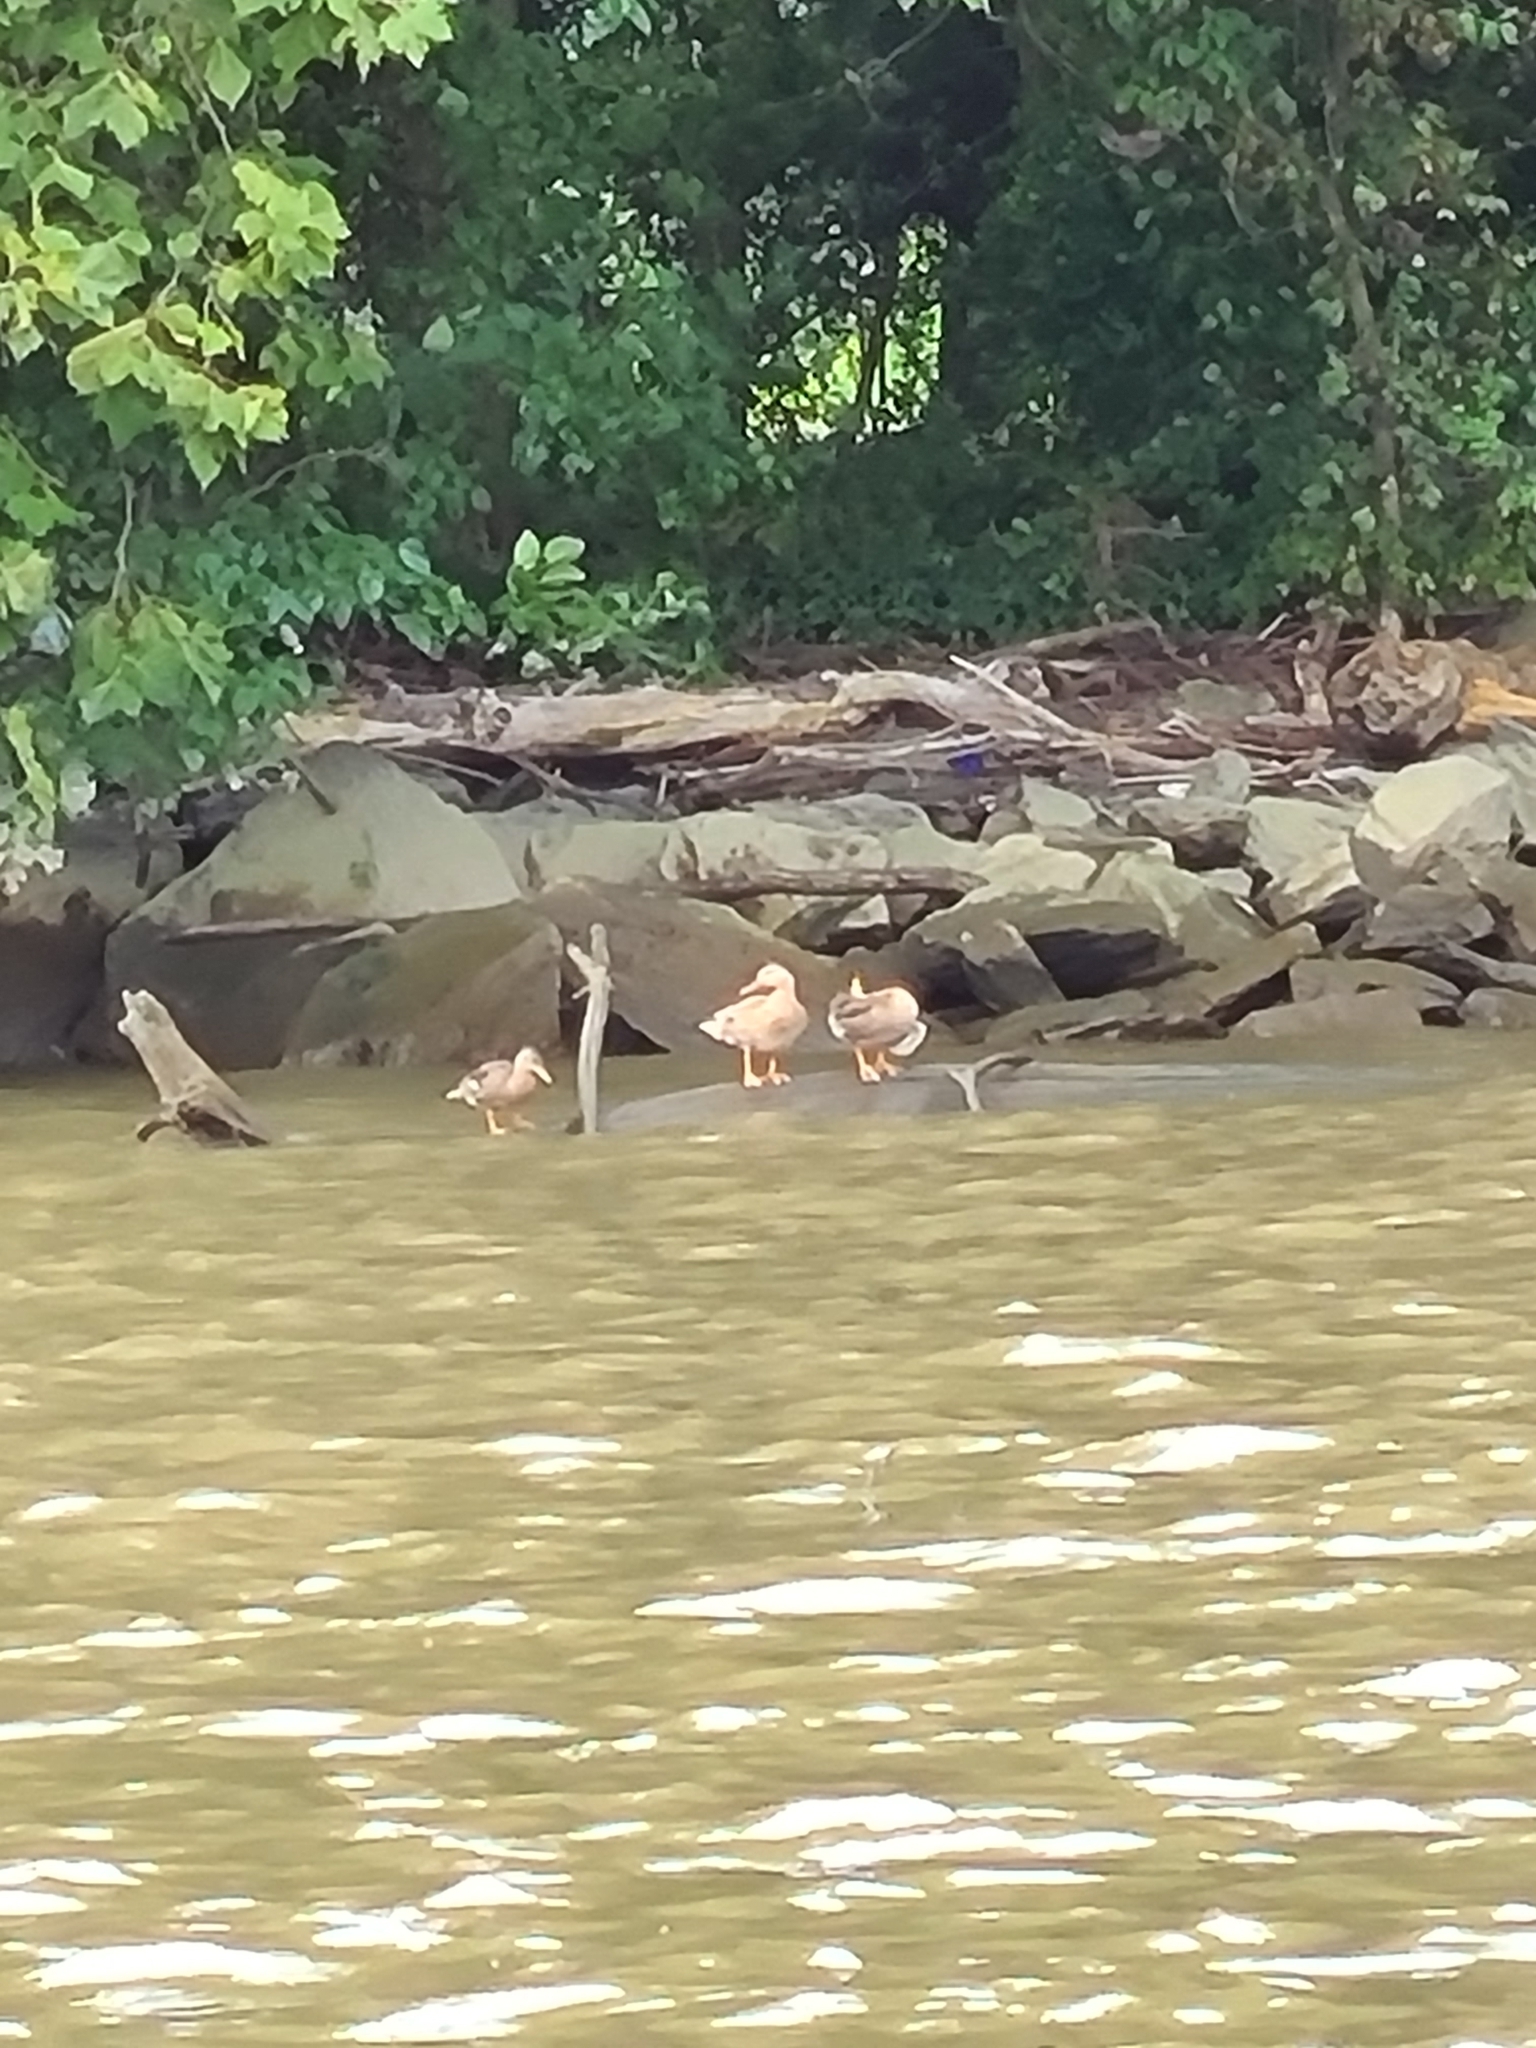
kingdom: Animalia
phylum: Chordata
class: Aves
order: Anseriformes
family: Anatidae
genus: Anas
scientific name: Anas platyrhynchos
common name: Mallard
